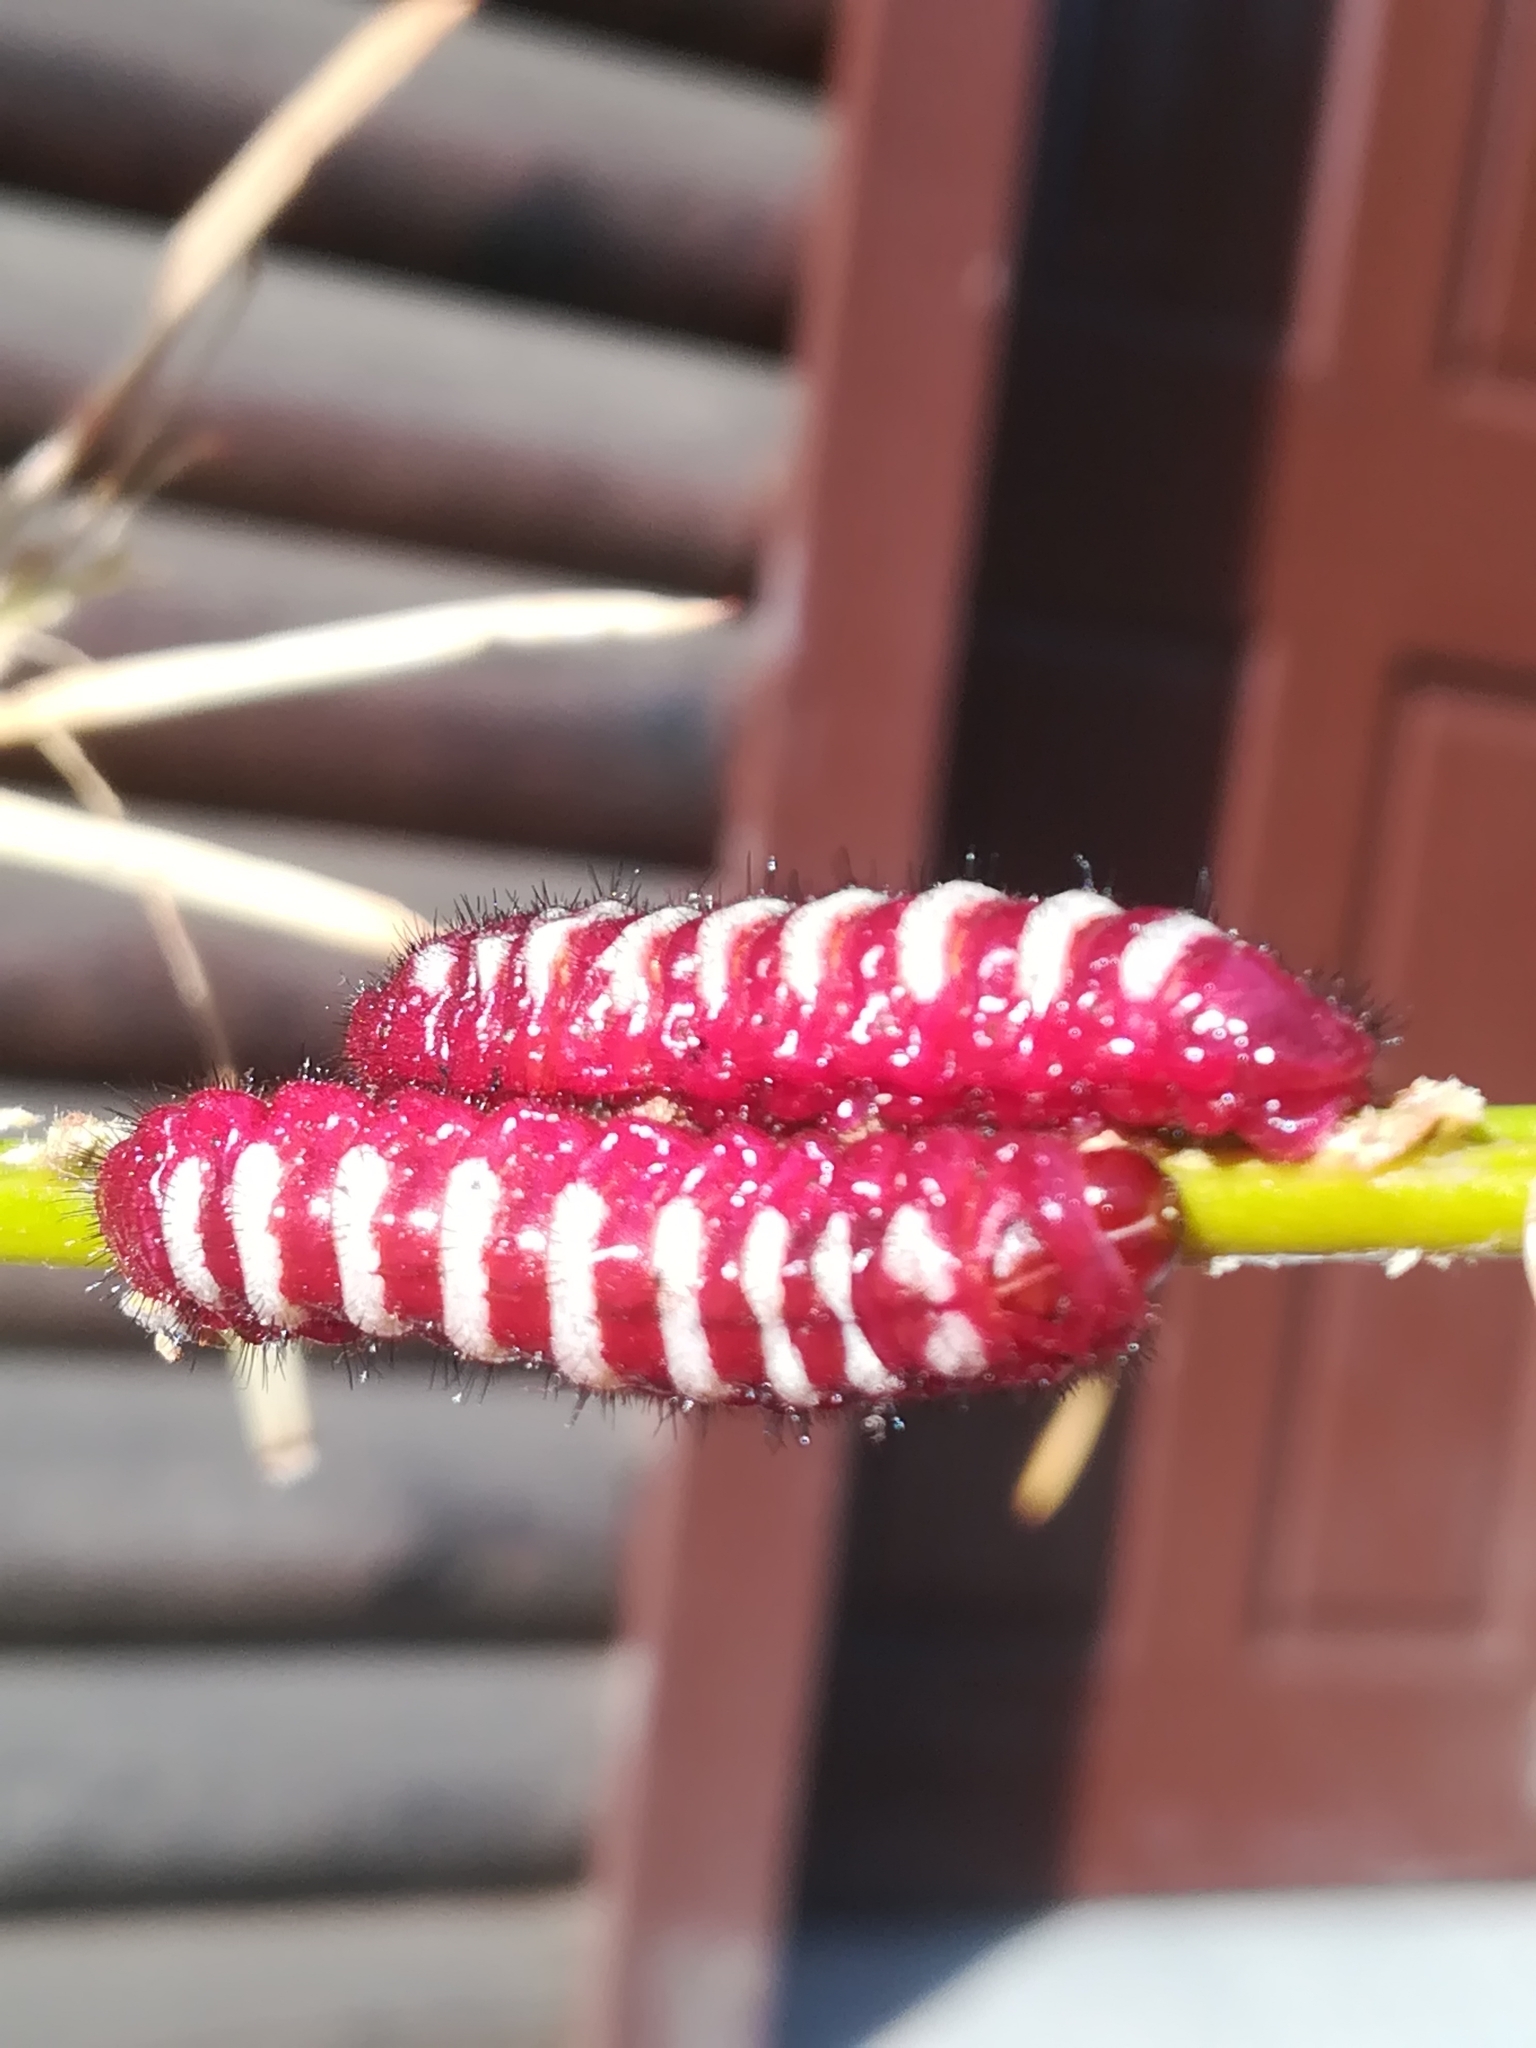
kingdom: Animalia
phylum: Arthropoda
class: Insecta
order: Lepidoptera
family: Lycaenidae
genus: Eumaeus
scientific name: Eumaeus childrenae
